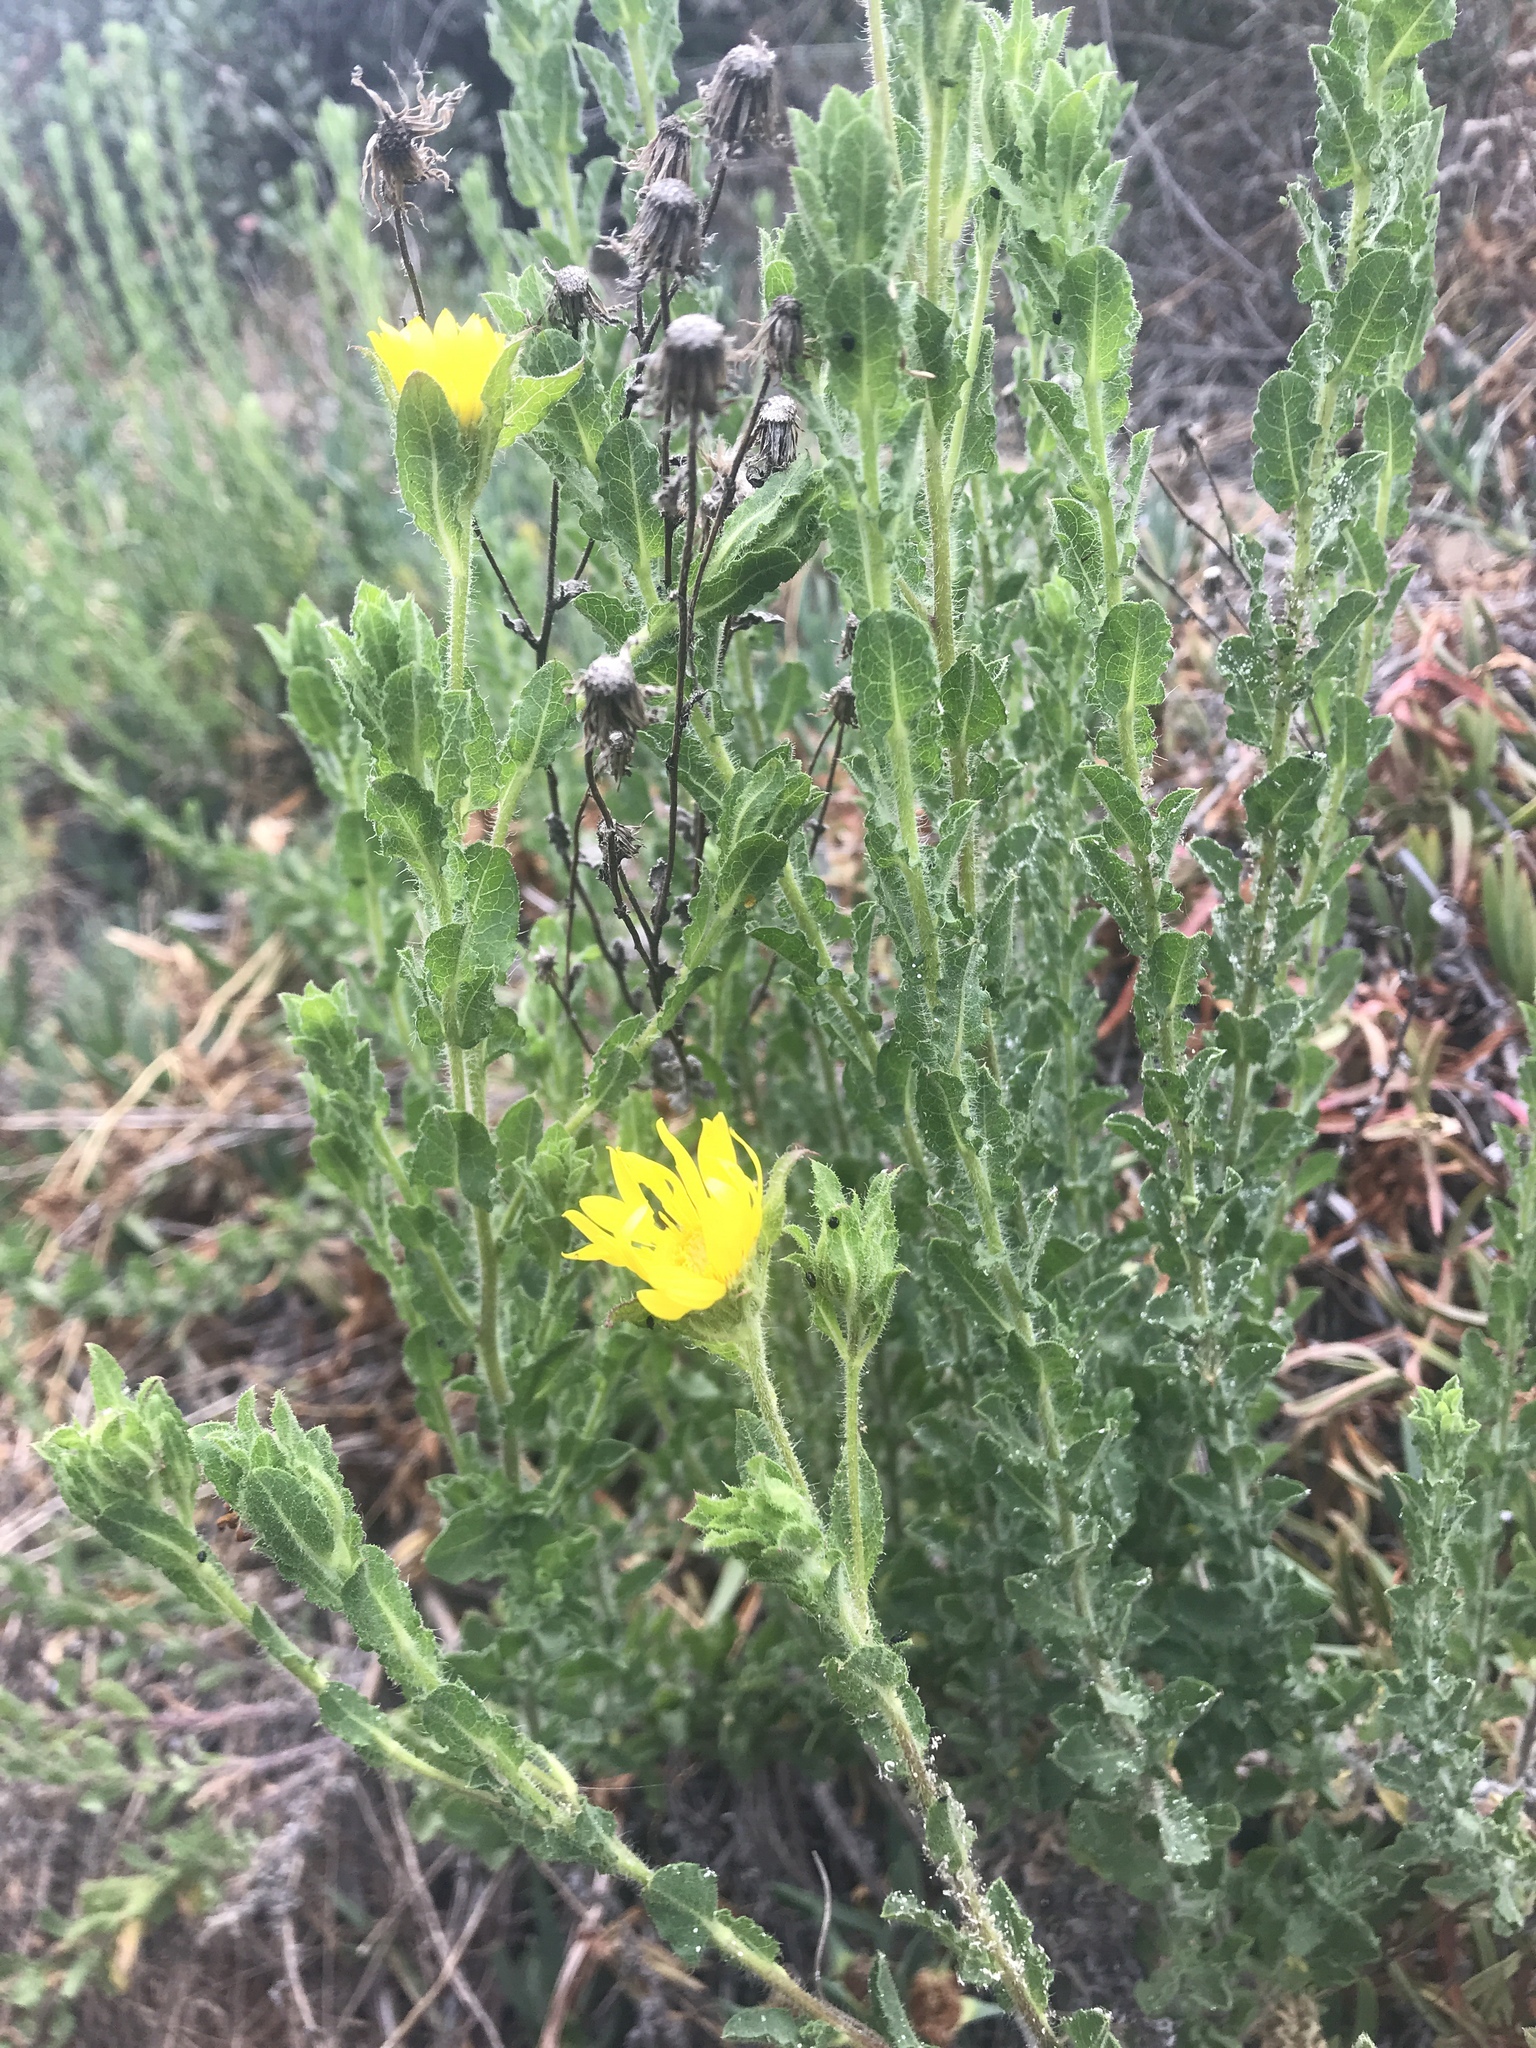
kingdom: Plantae
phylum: Tracheophyta
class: Magnoliopsida
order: Asterales
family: Asteraceae
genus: Heterotheca
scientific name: Heterotheca sessiliflora
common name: Sessile-flower golden-aster
